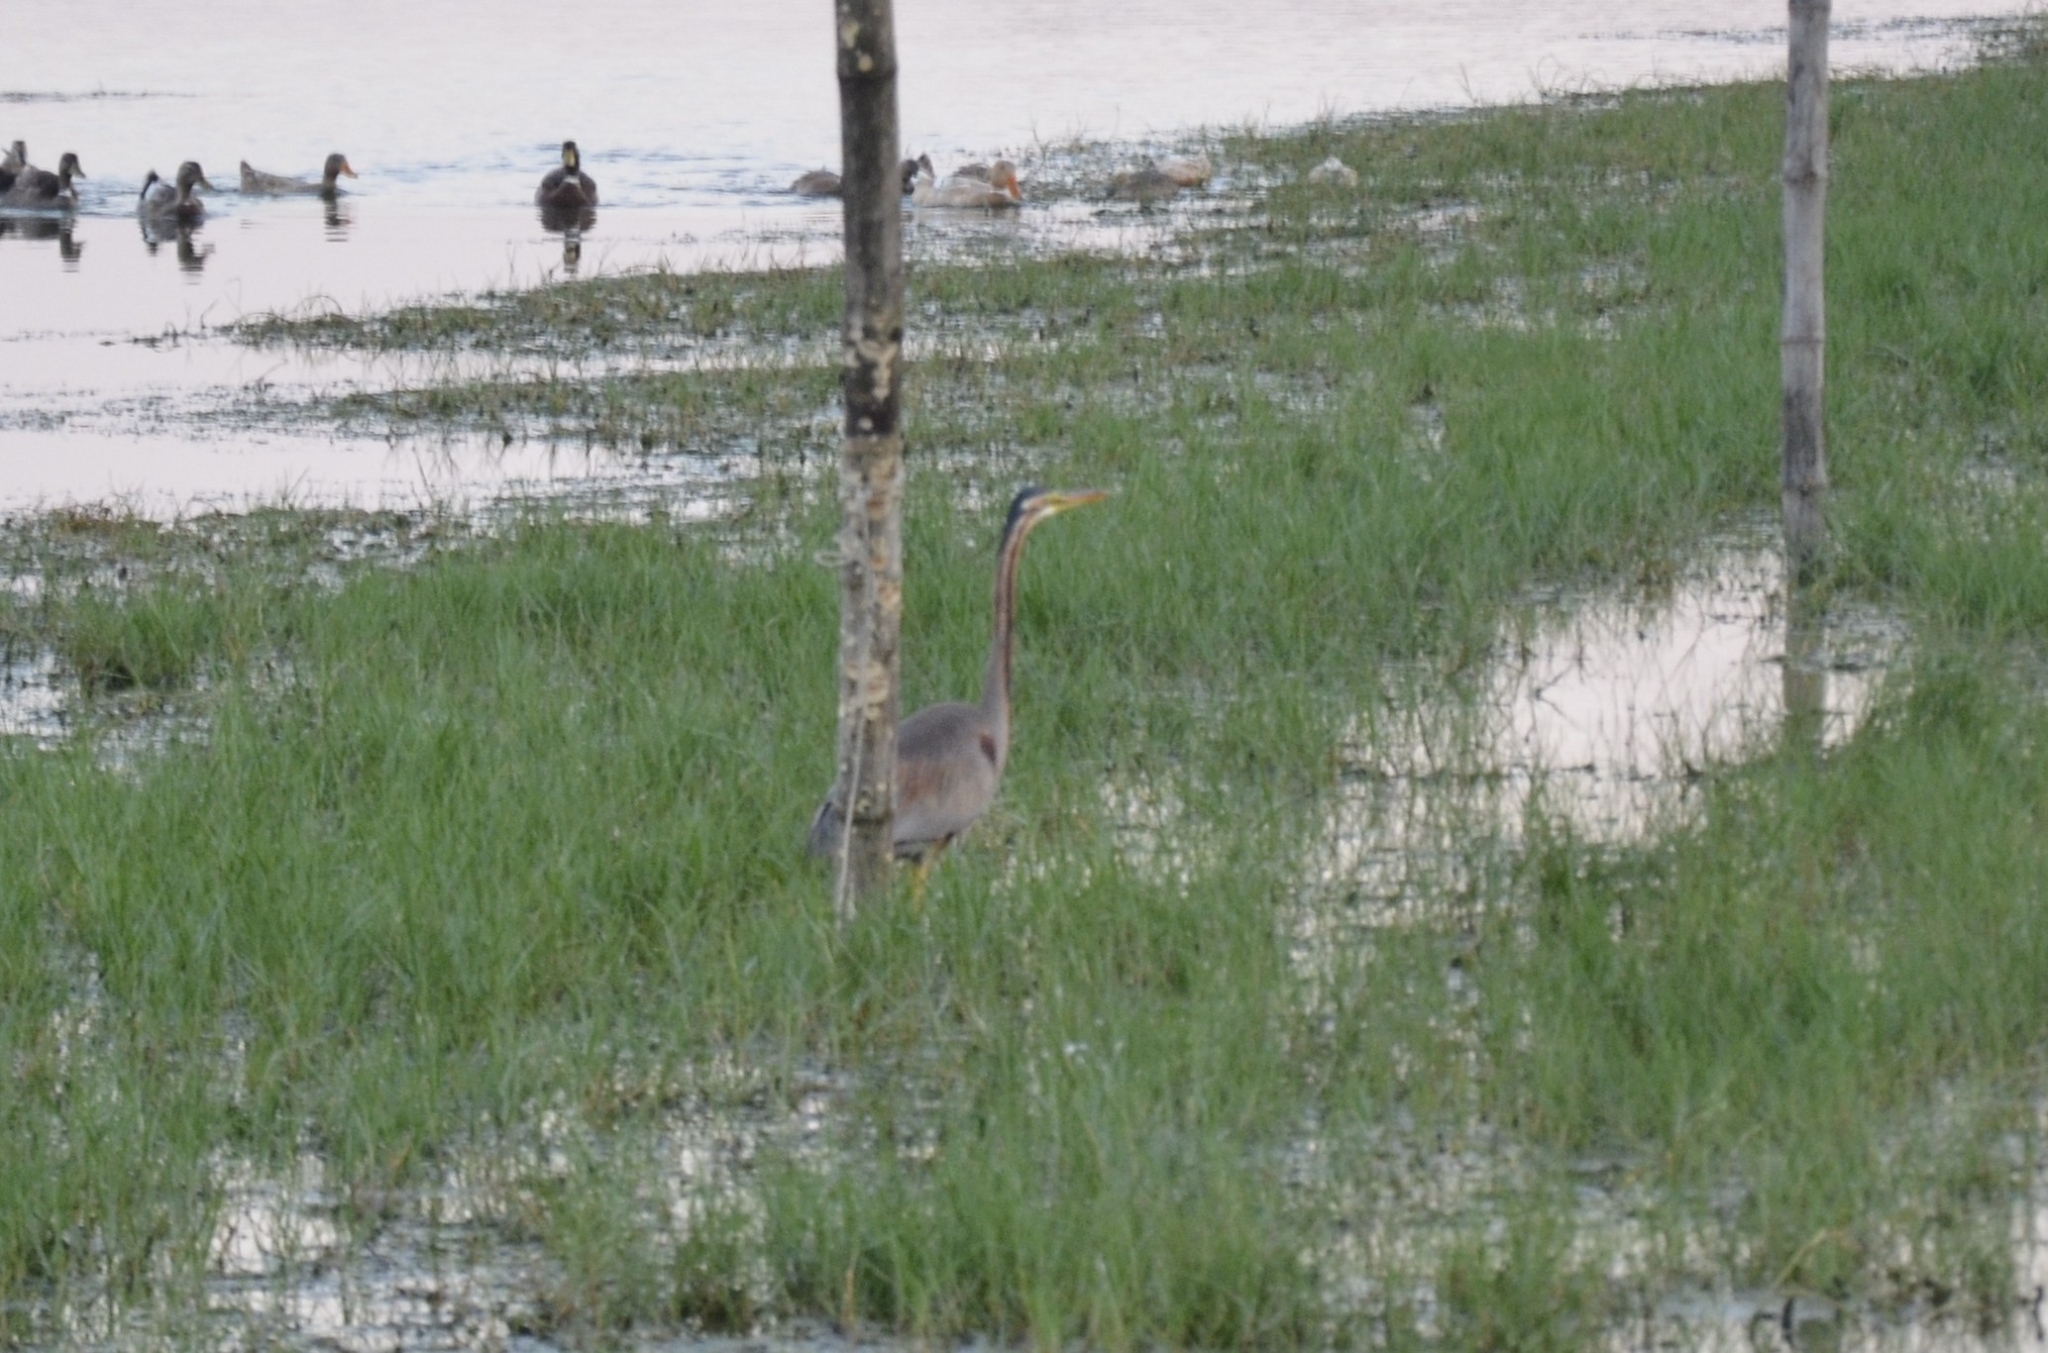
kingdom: Animalia
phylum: Chordata
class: Aves
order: Pelecaniformes
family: Ardeidae
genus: Ardea
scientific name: Ardea purpurea
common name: Purple heron
